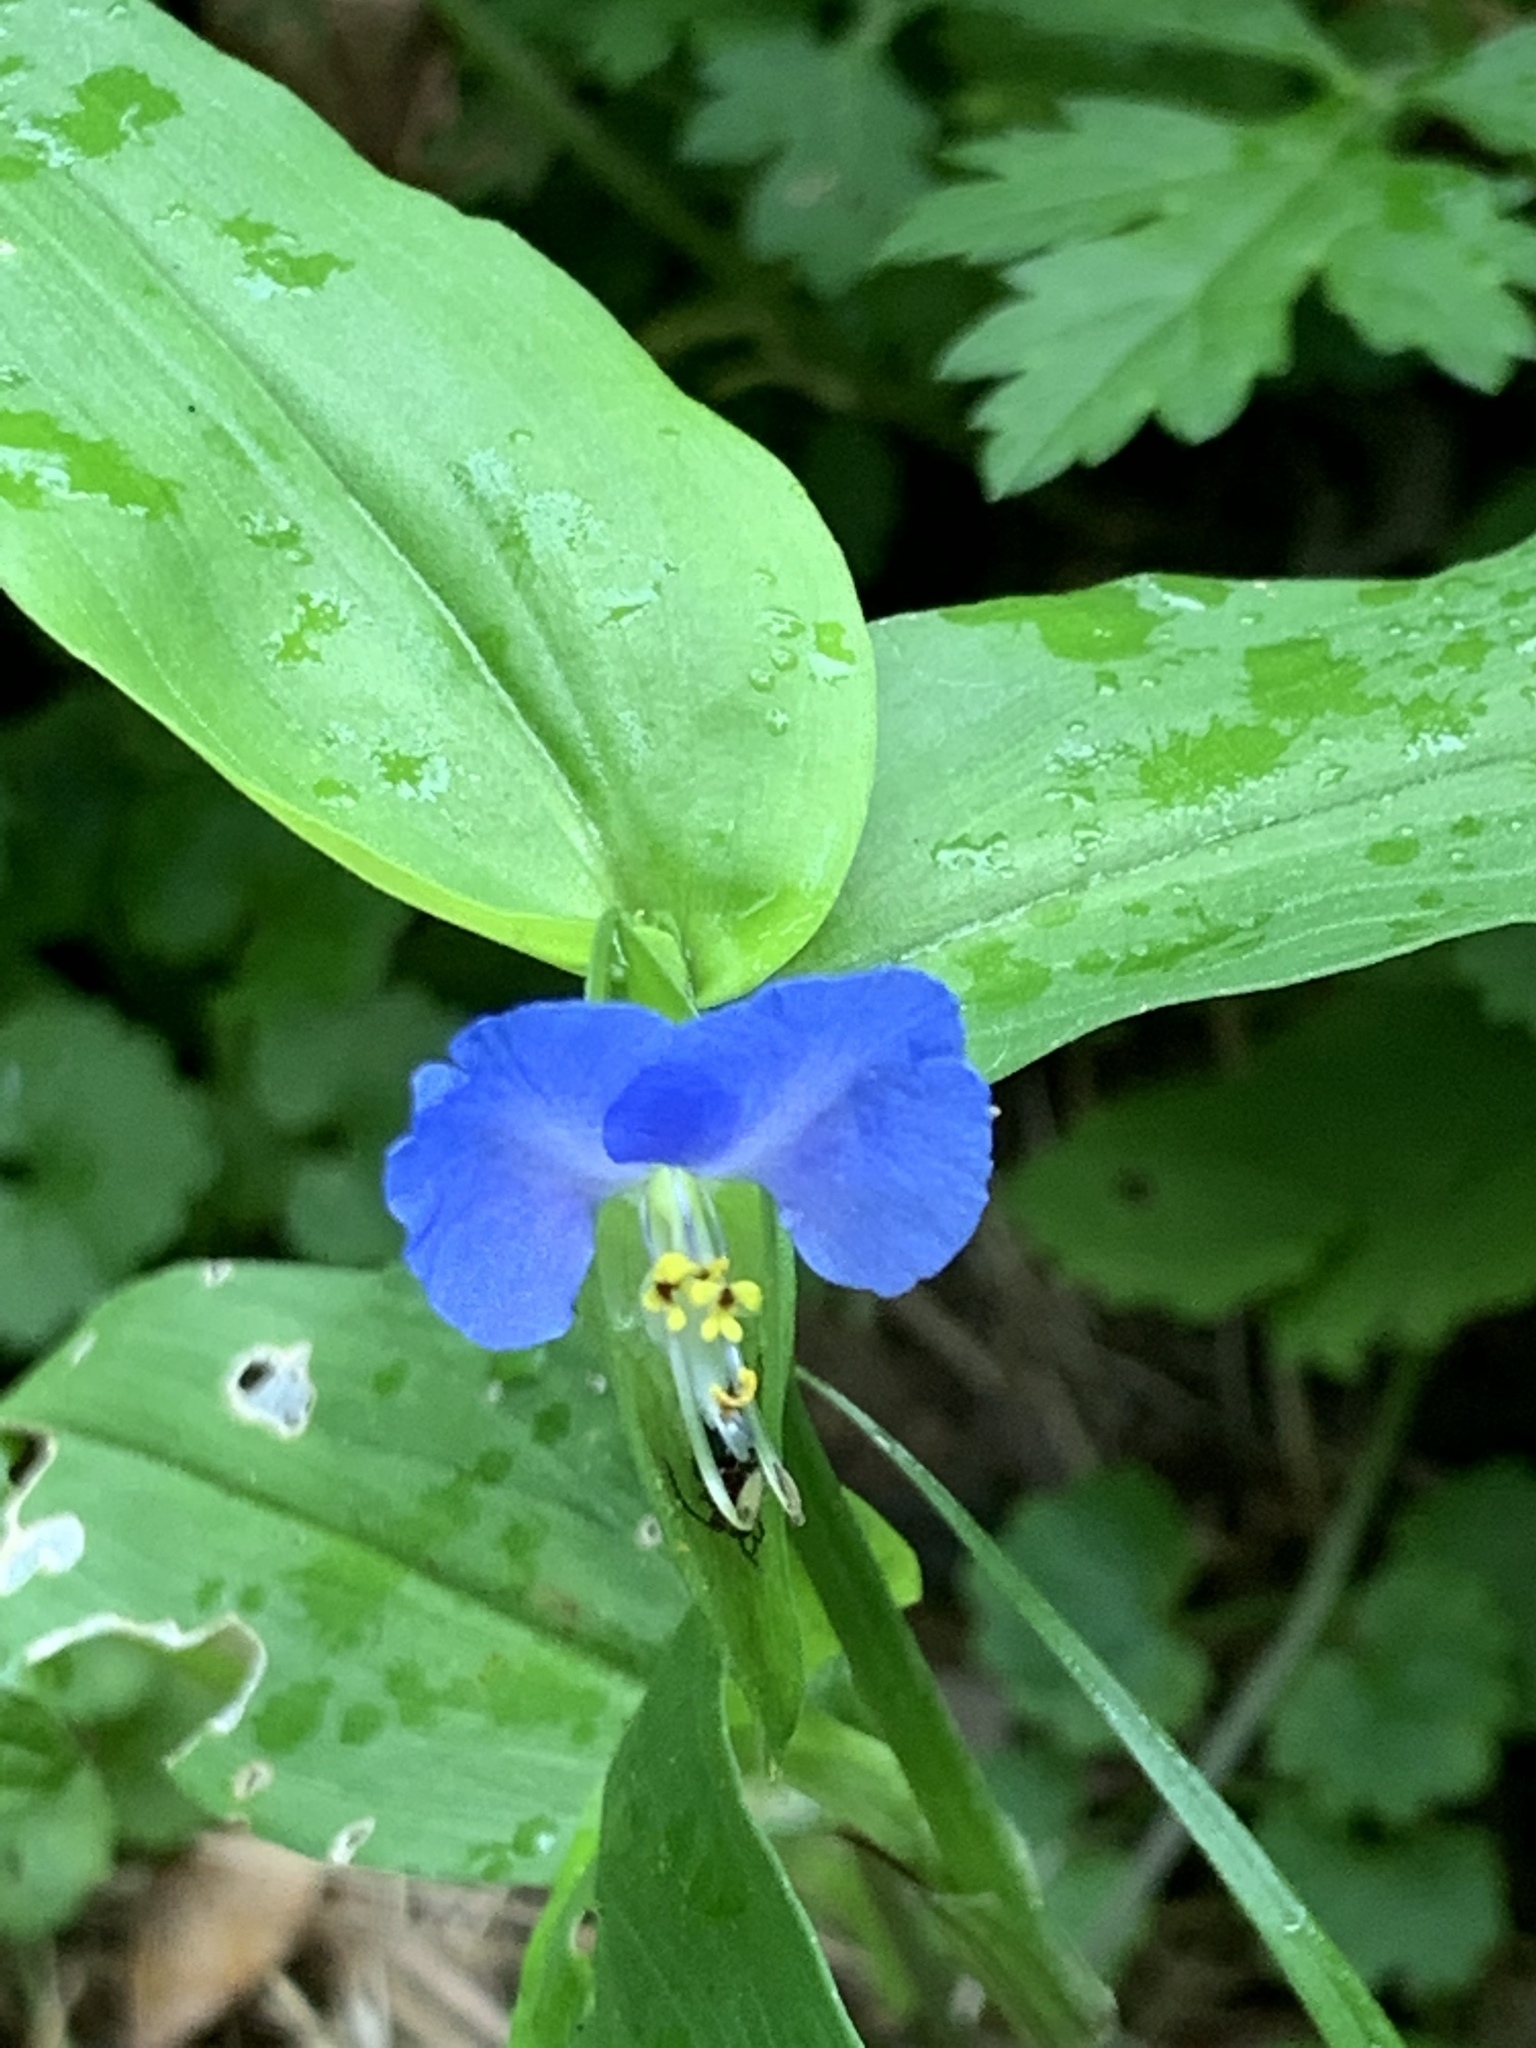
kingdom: Plantae
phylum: Tracheophyta
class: Liliopsida
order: Commelinales
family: Commelinaceae
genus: Commelina
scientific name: Commelina communis
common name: Asiatic dayflower
